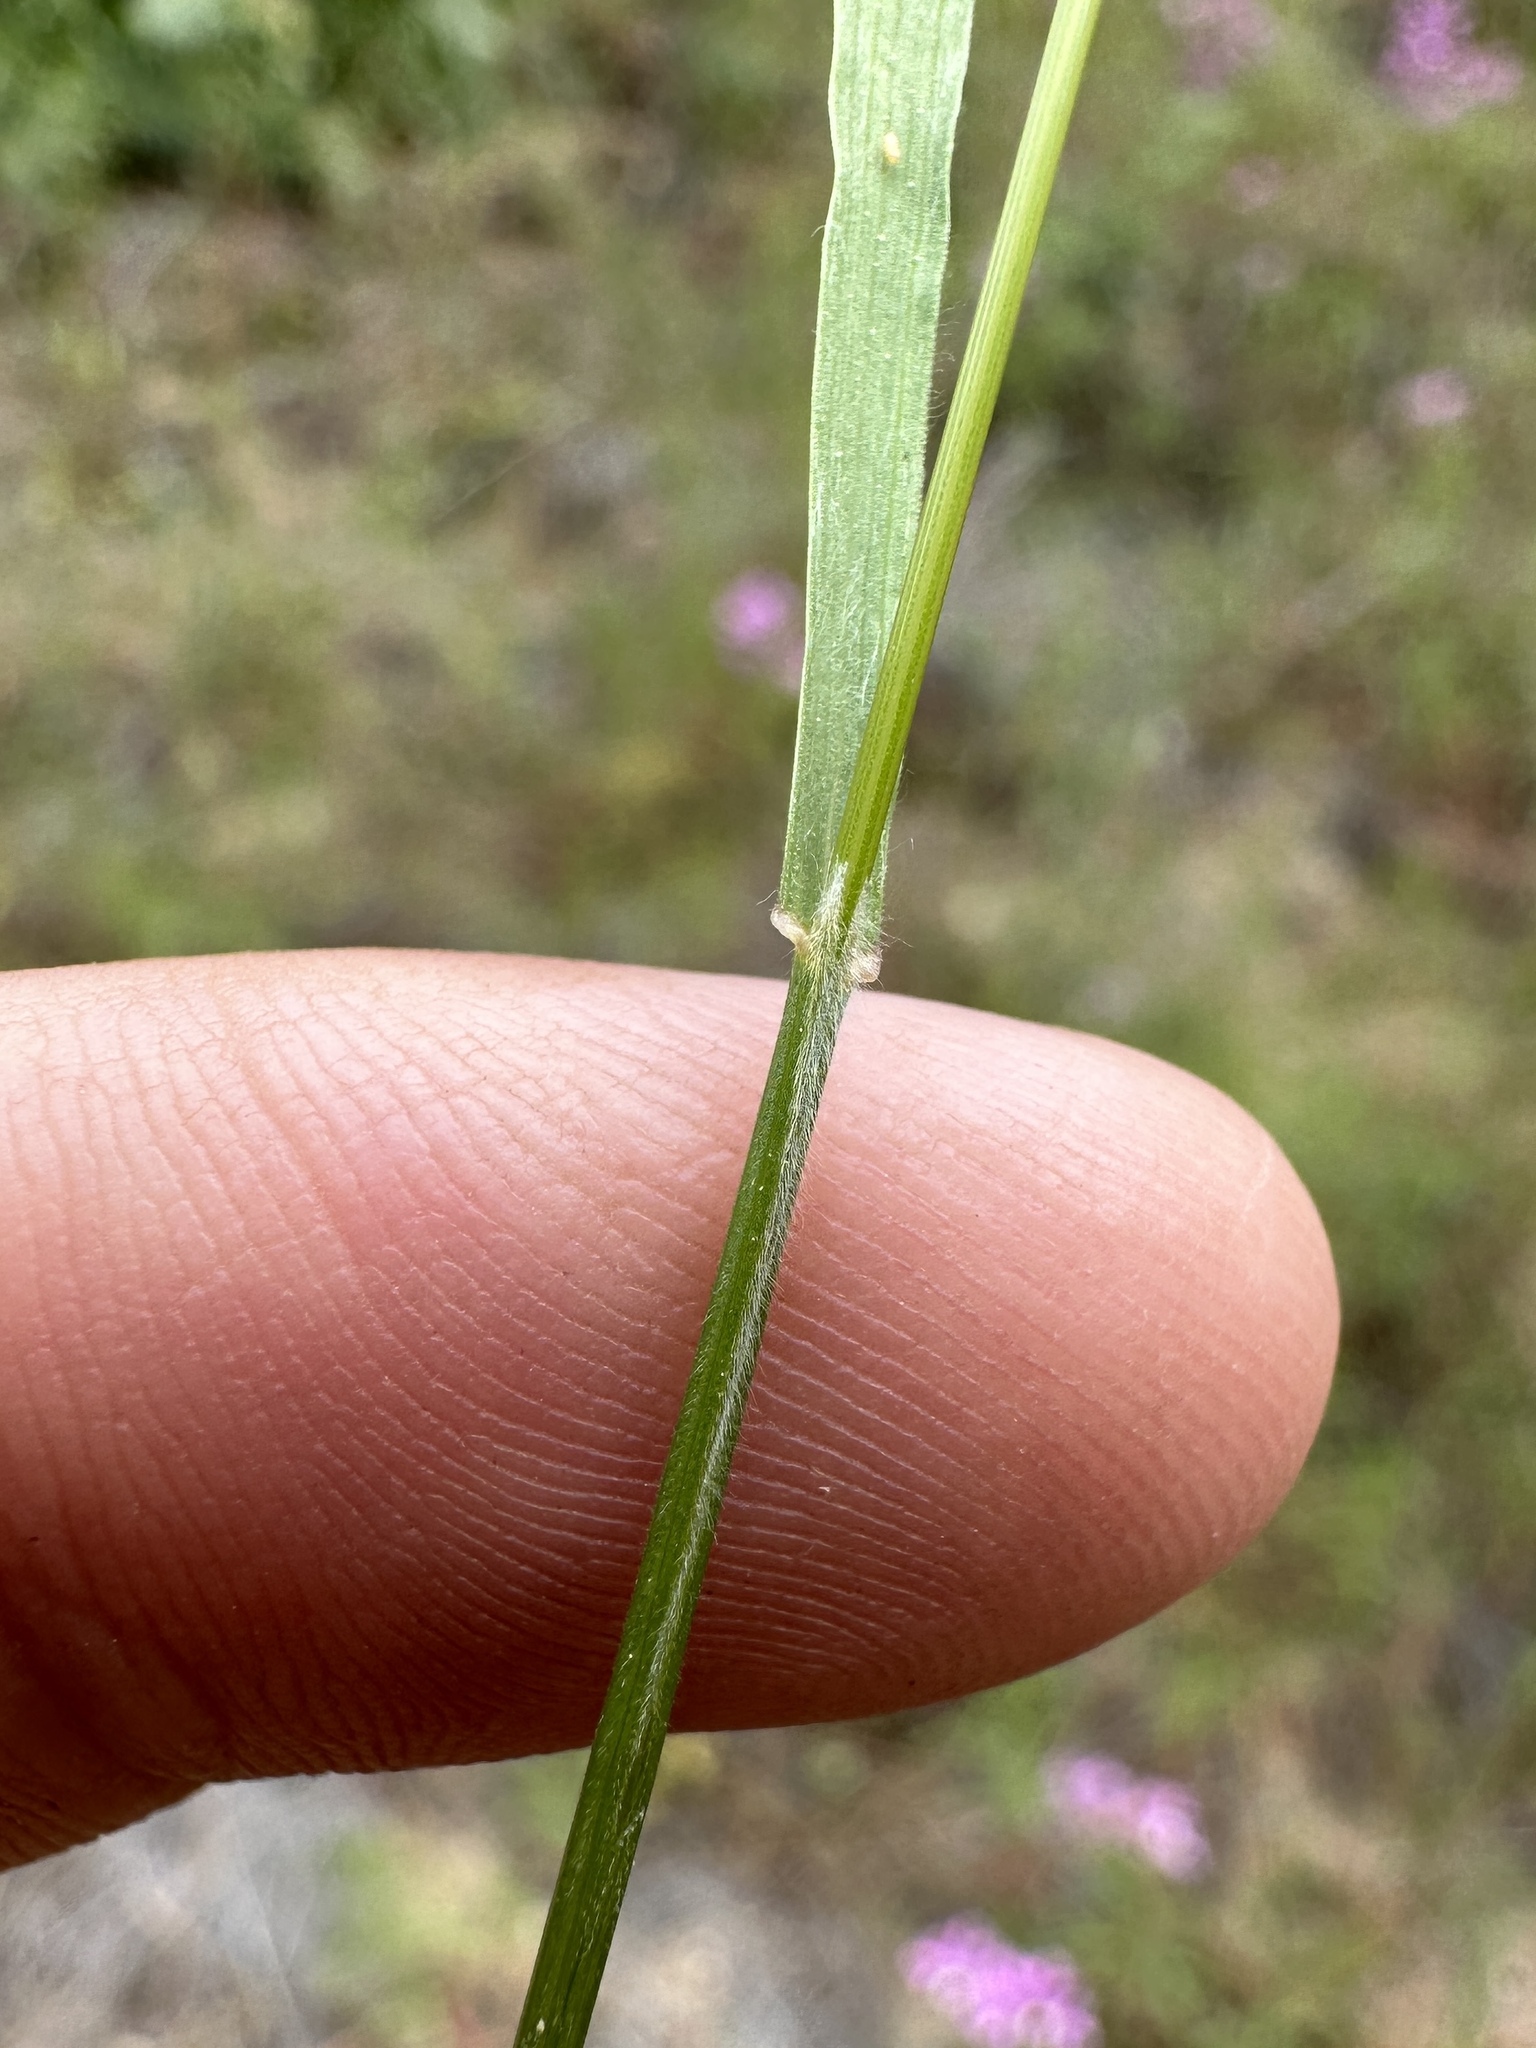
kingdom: Plantae
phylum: Tracheophyta
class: Liliopsida
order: Poales
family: Poaceae
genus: Bromus
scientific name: Bromus briziformis
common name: Rattlesnake brome
